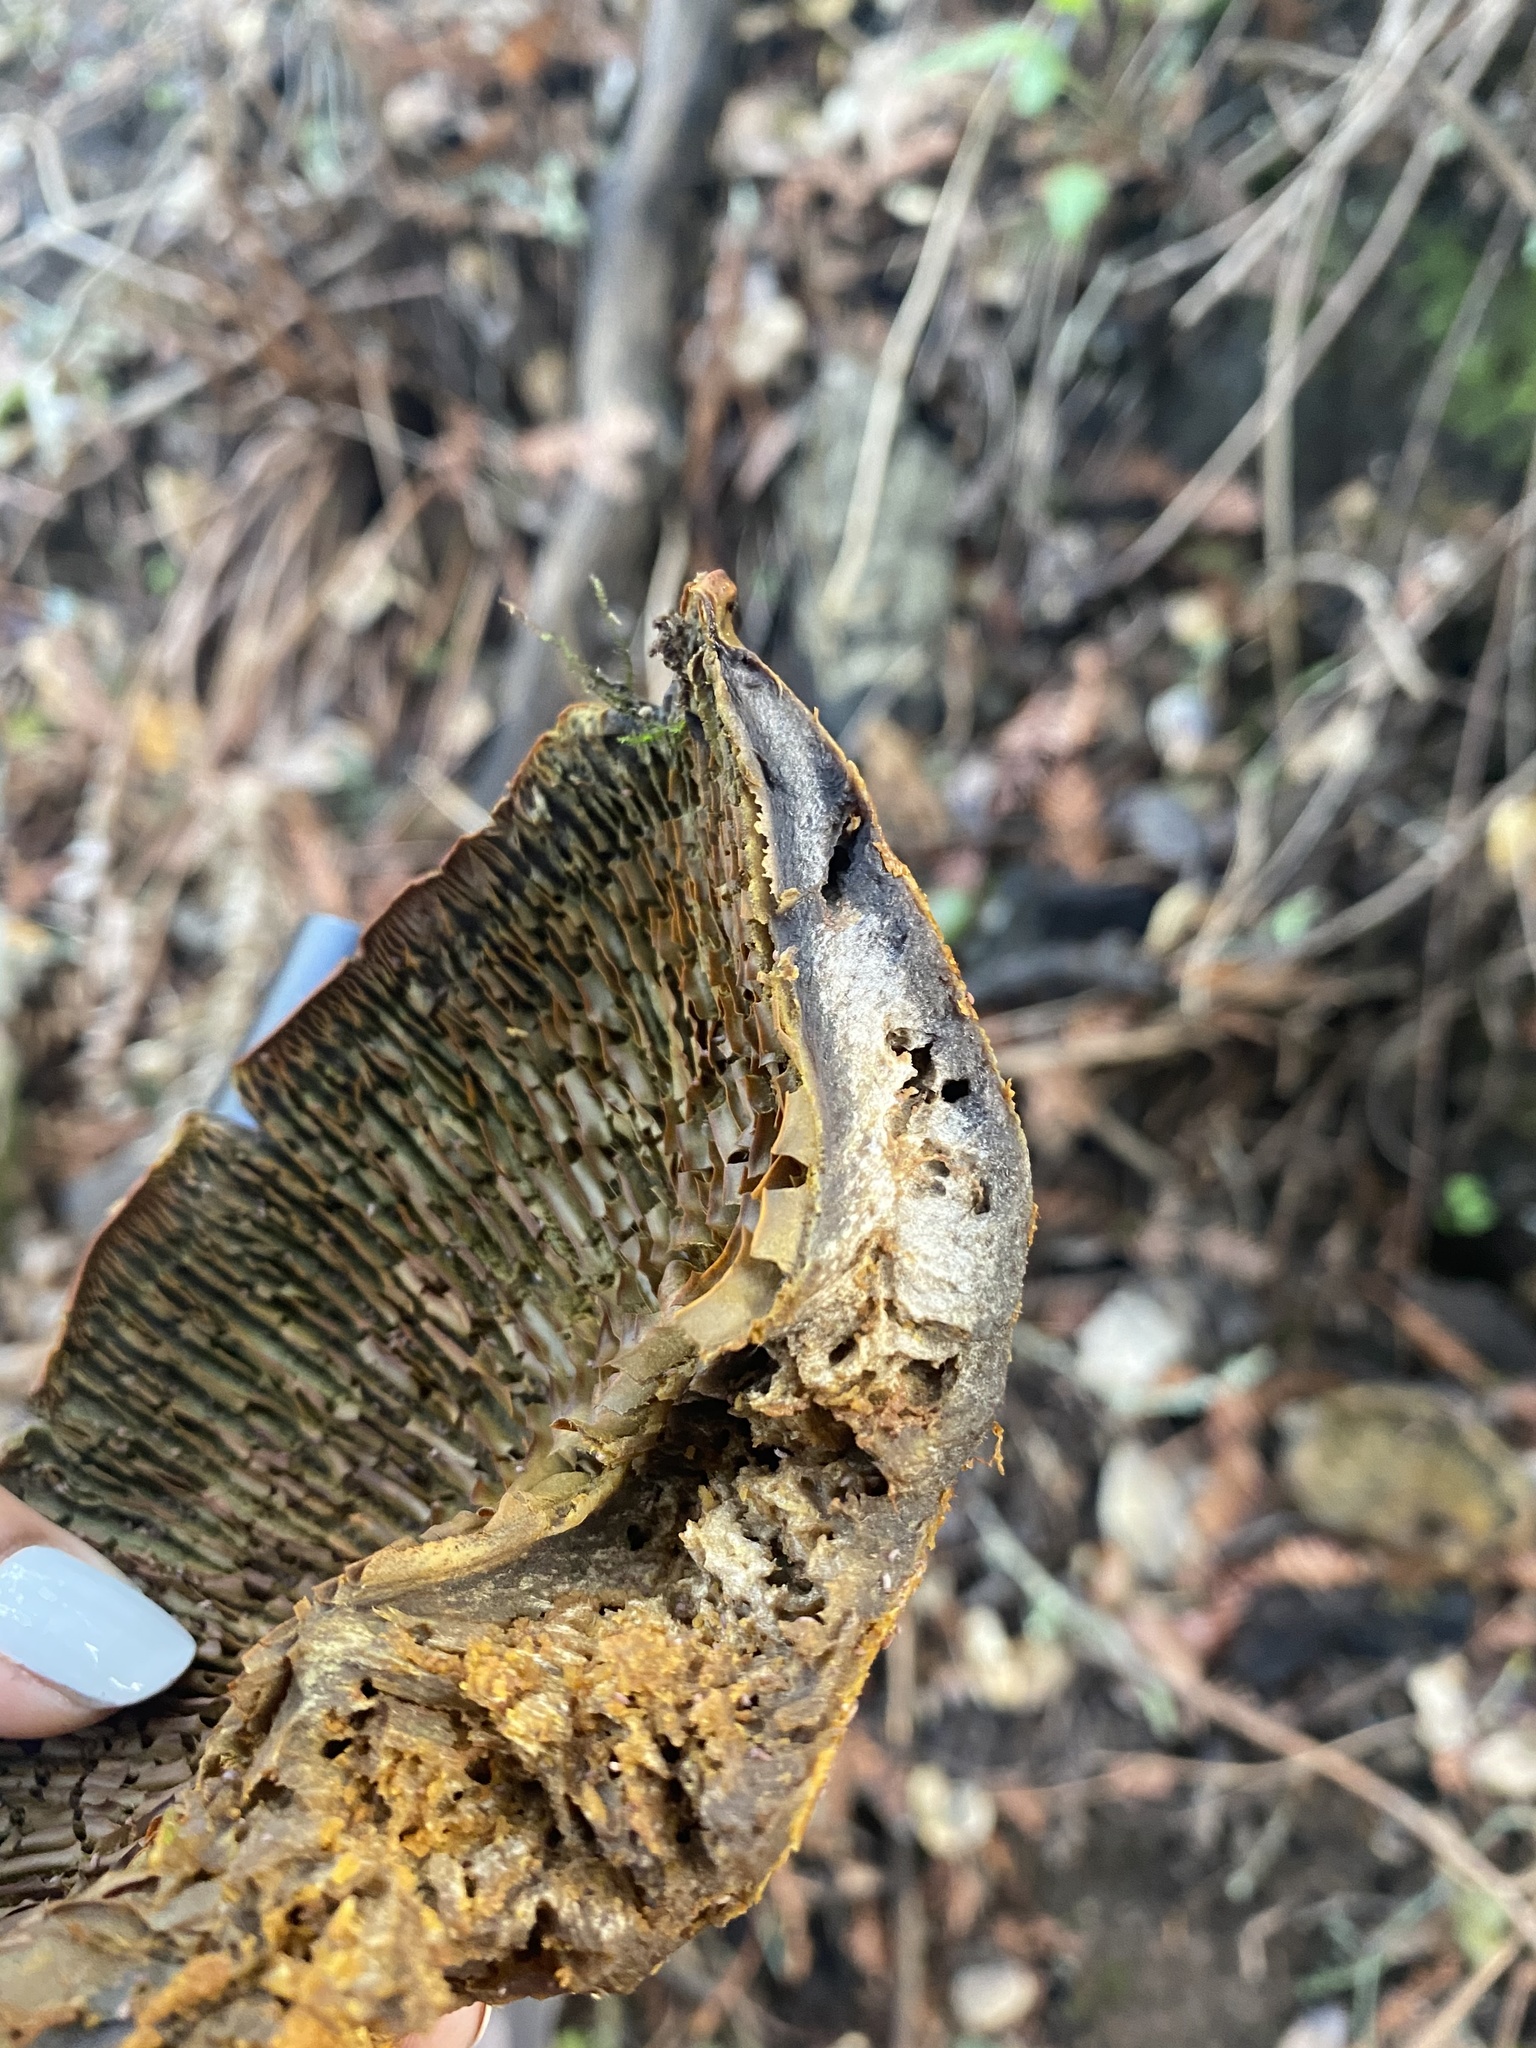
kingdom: Fungi
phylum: Basidiomycota
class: Agaricomycetes
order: Agaricales
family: Omphalotaceae
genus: Omphalotus
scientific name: Omphalotus olivascens
